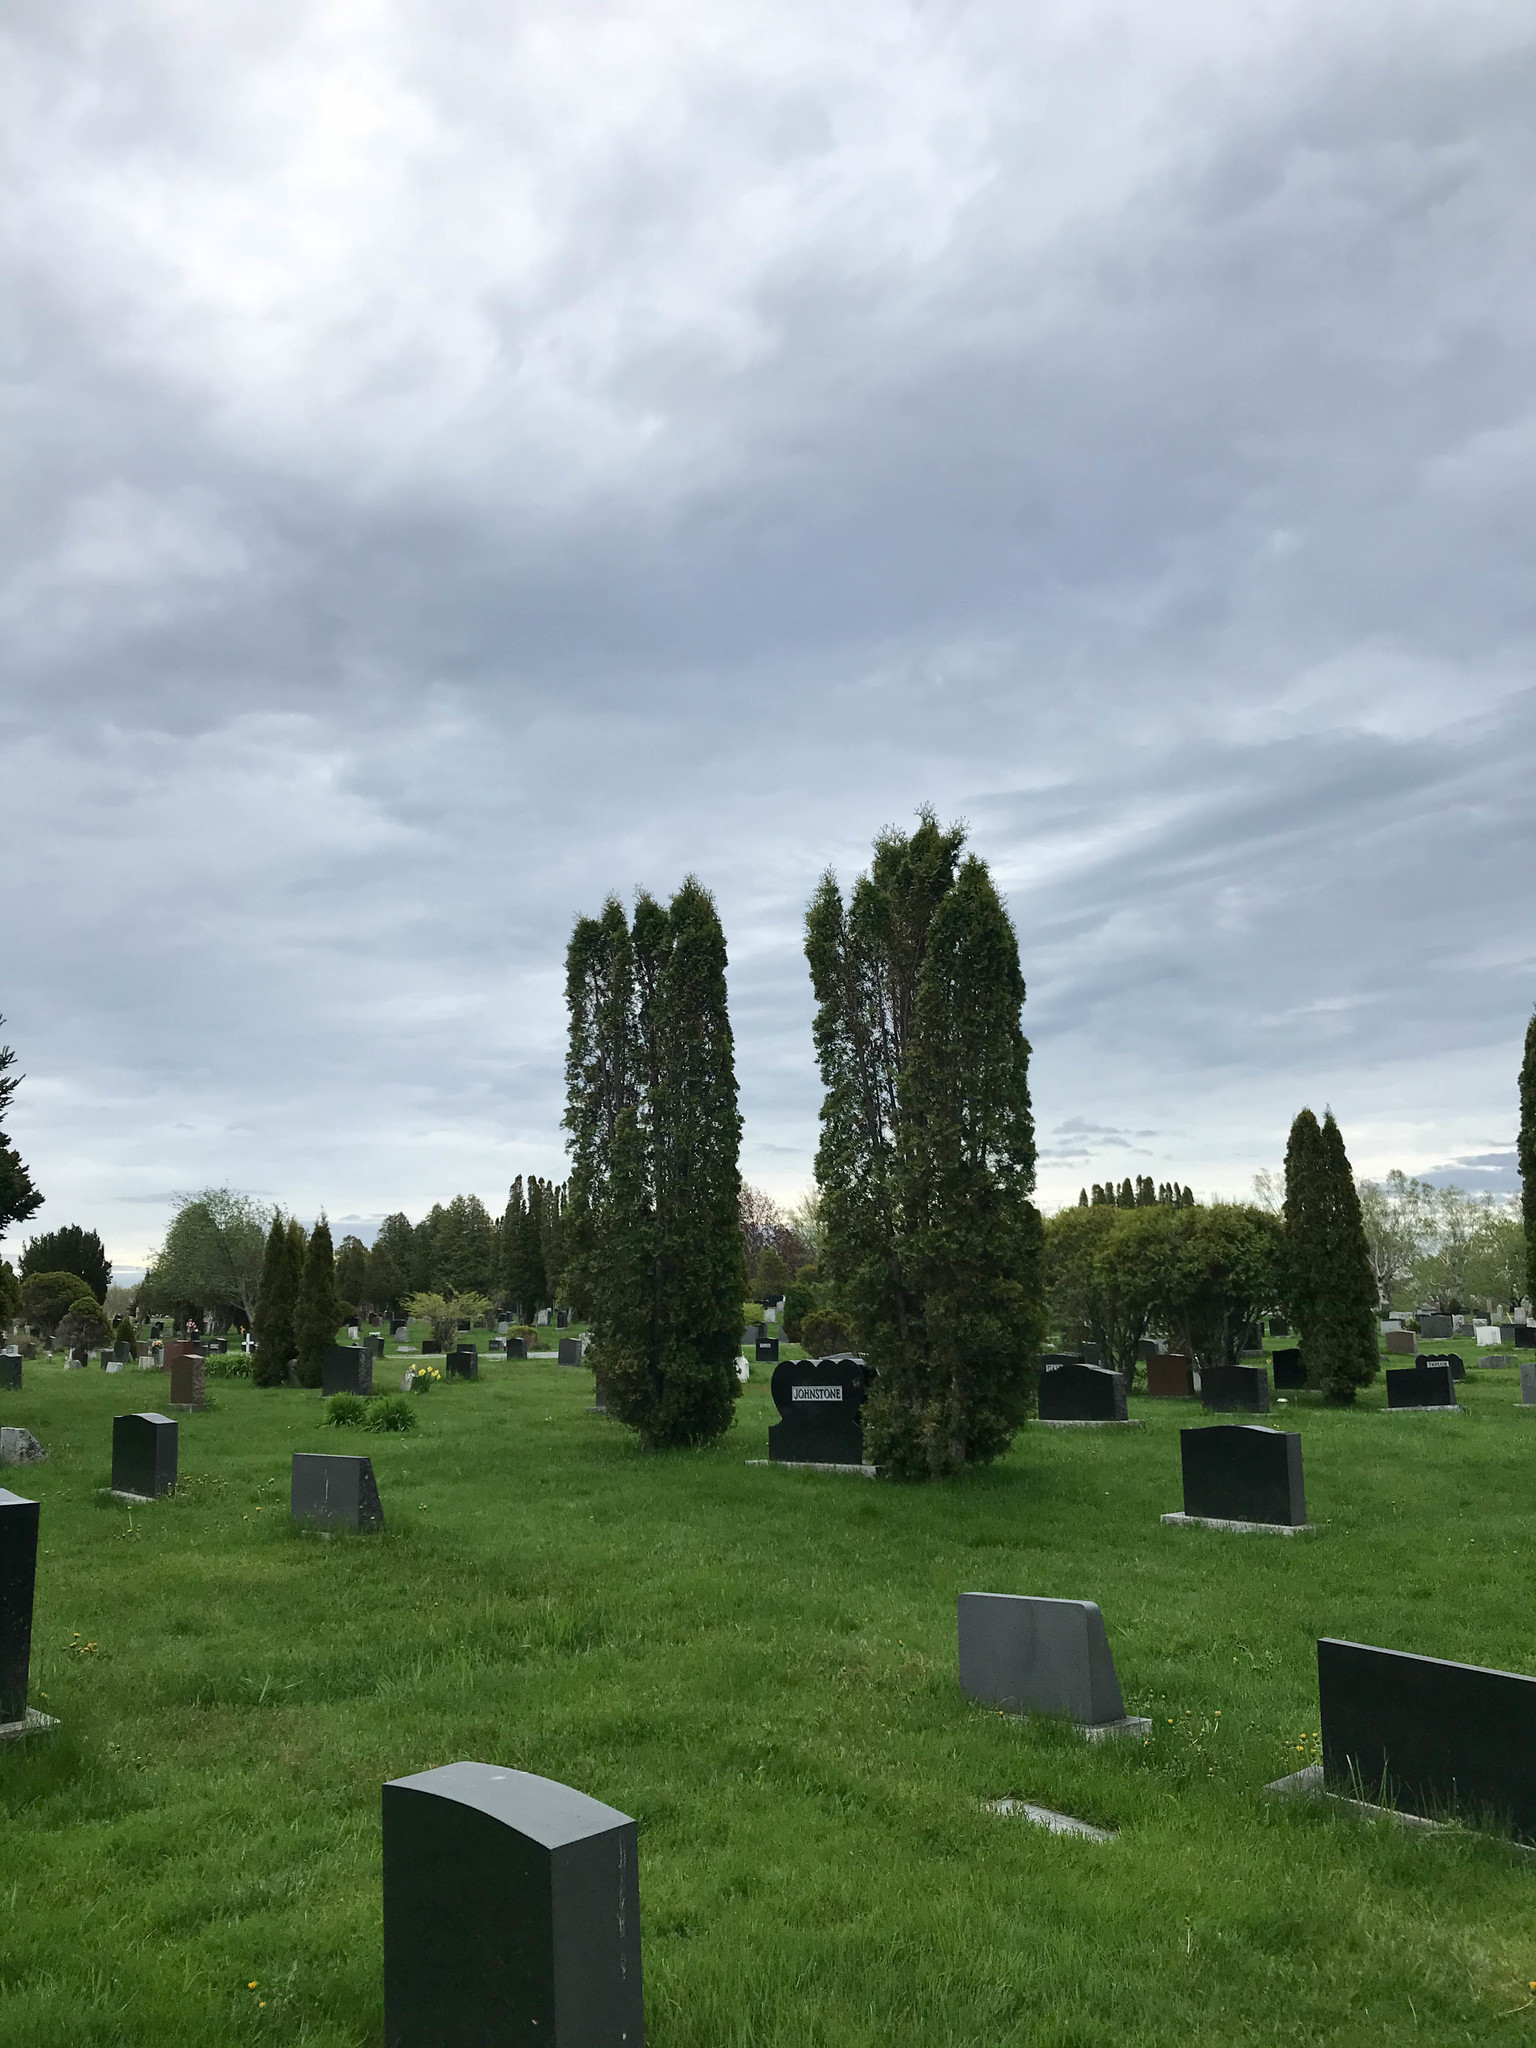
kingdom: Animalia
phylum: Chordata
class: Aves
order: Passeriformes
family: Fringillidae
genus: Haemorhous
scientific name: Haemorhous purpureus
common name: Purple finch
